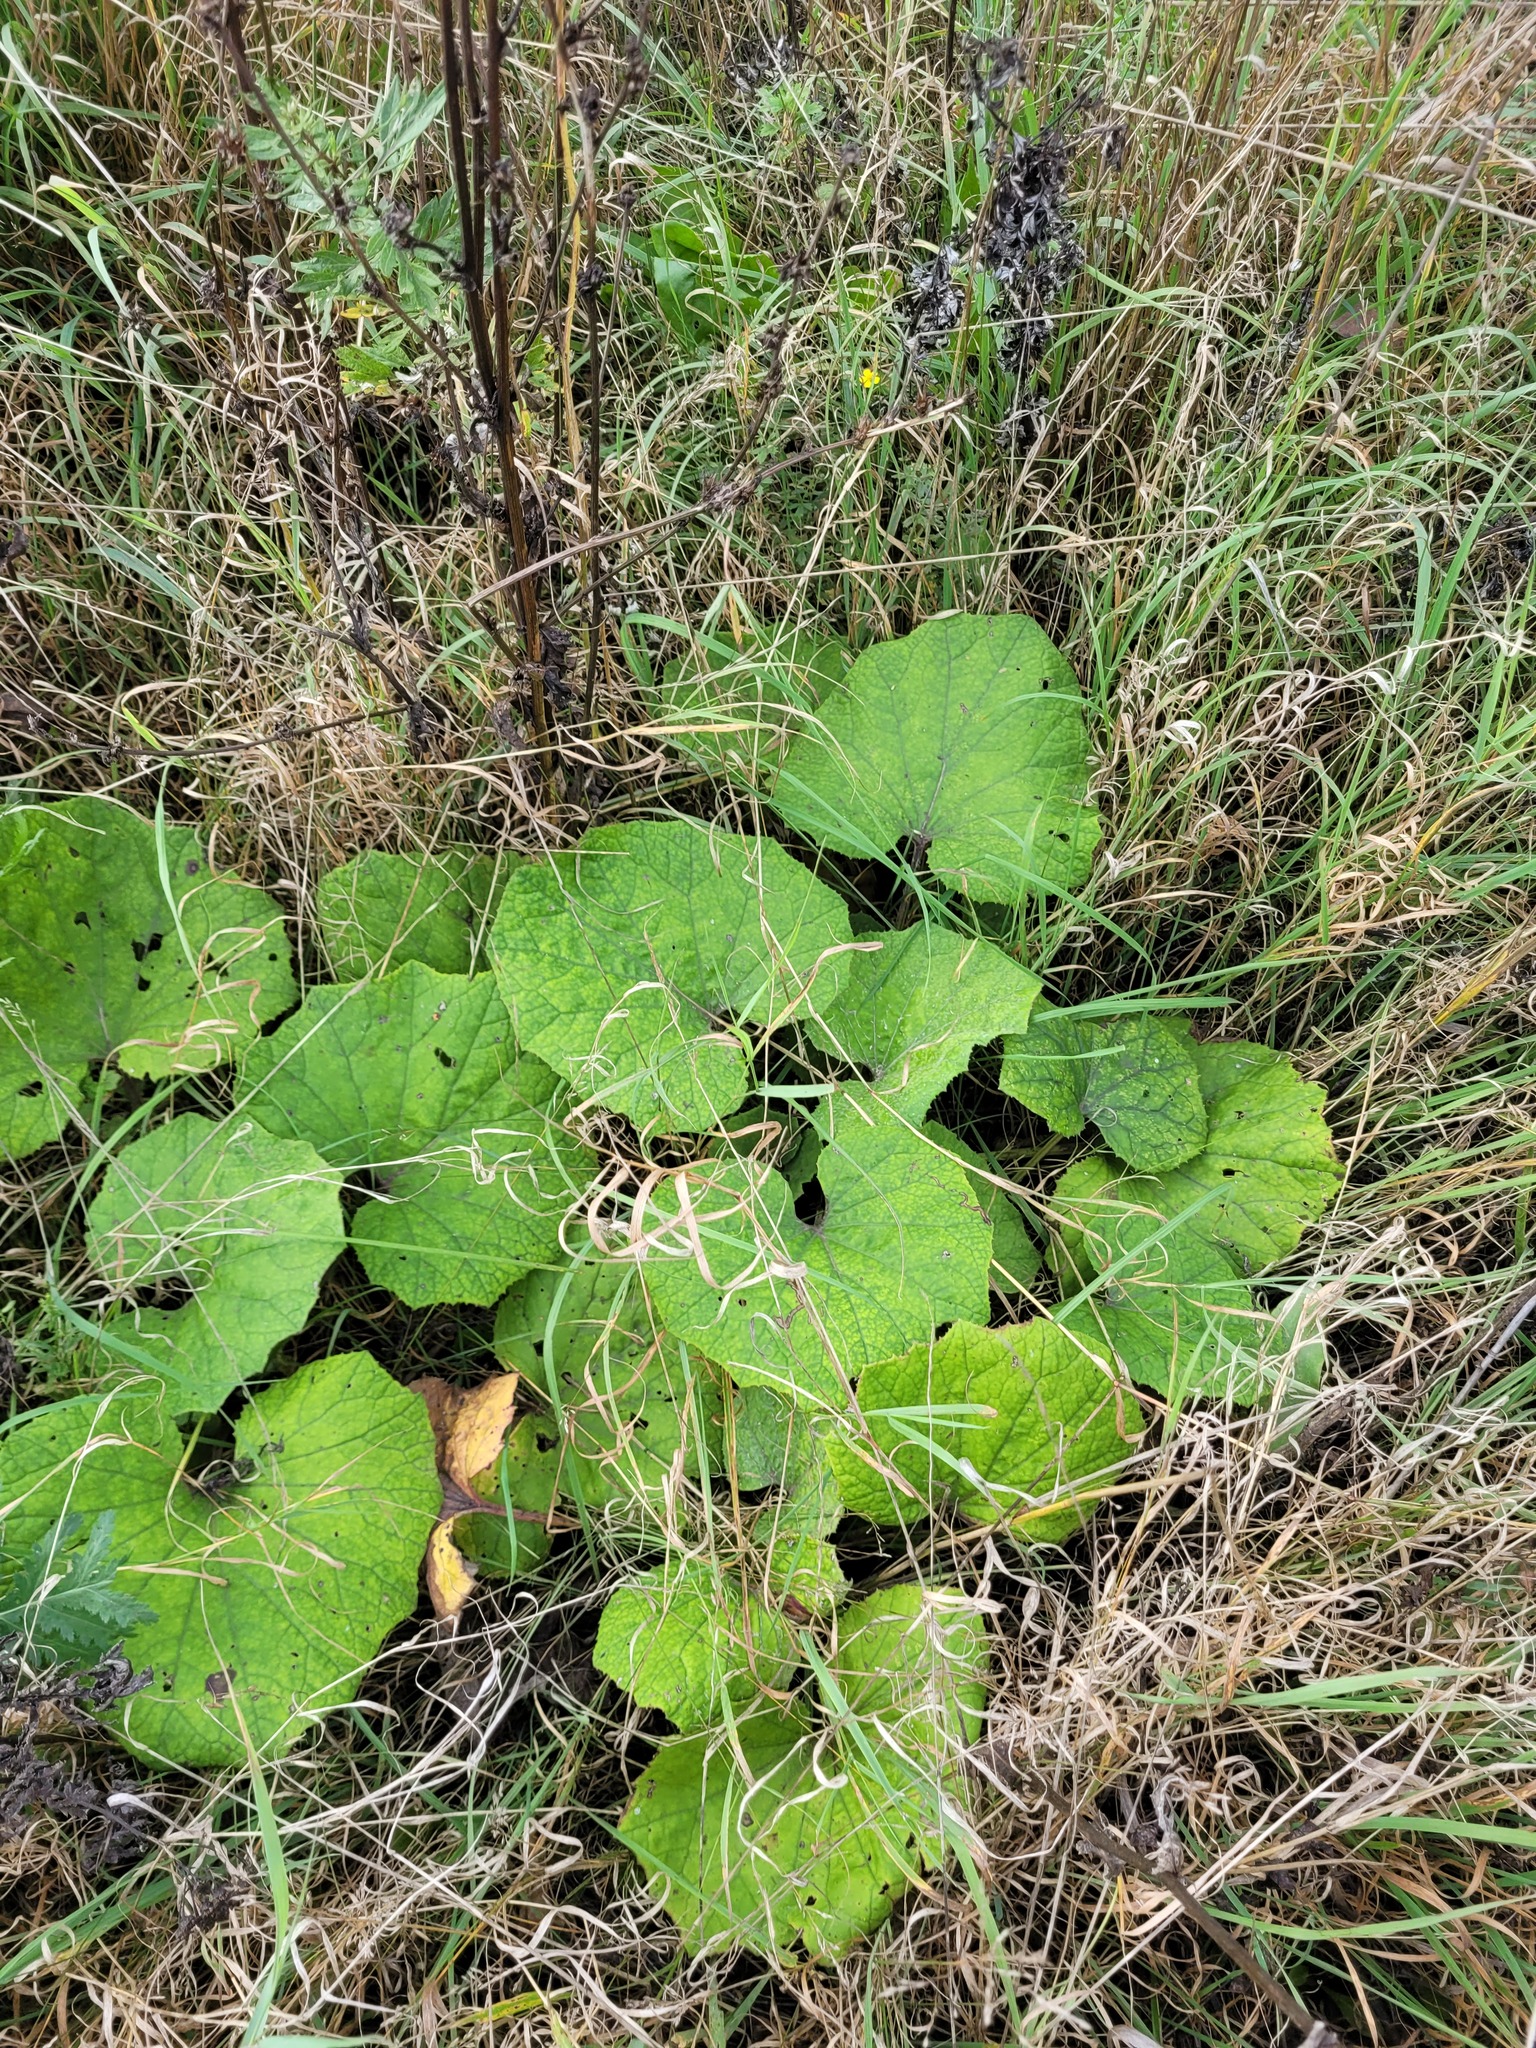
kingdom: Plantae
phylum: Tracheophyta
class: Magnoliopsida
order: Asterales
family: Asteraceae
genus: Tussilago
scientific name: Tussilago farfara
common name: Coltsfoot
